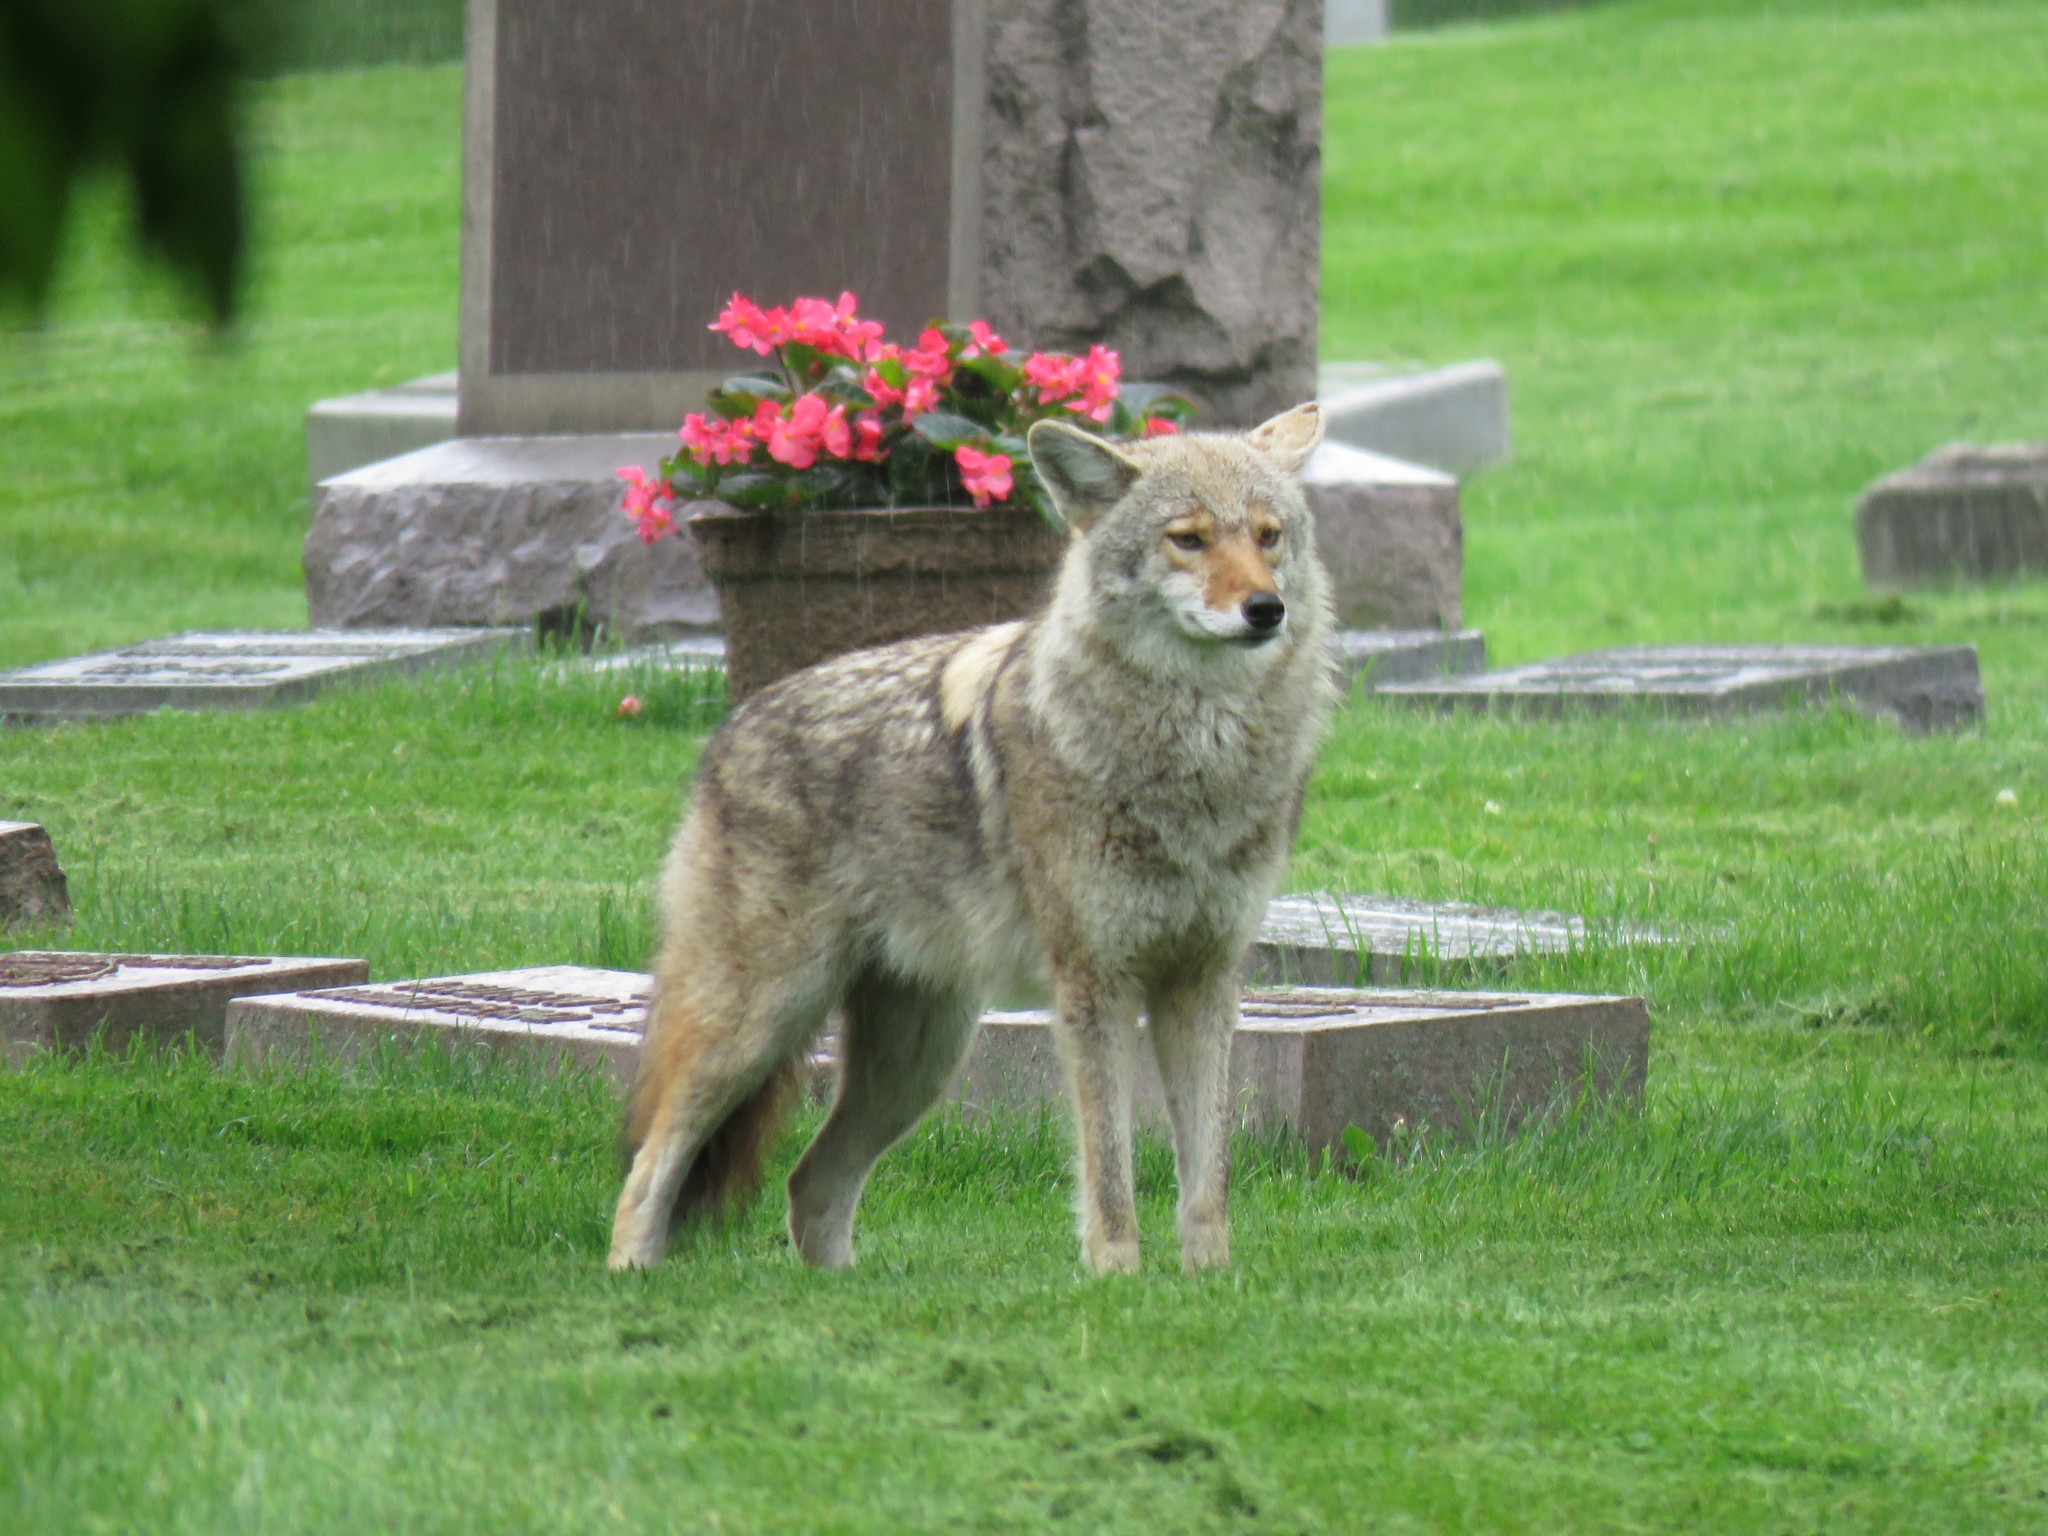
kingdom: Animalia
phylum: Chordata
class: Mammalia
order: Carnivora
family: Canidae
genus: Canis
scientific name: Canis latrans
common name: Coyote
